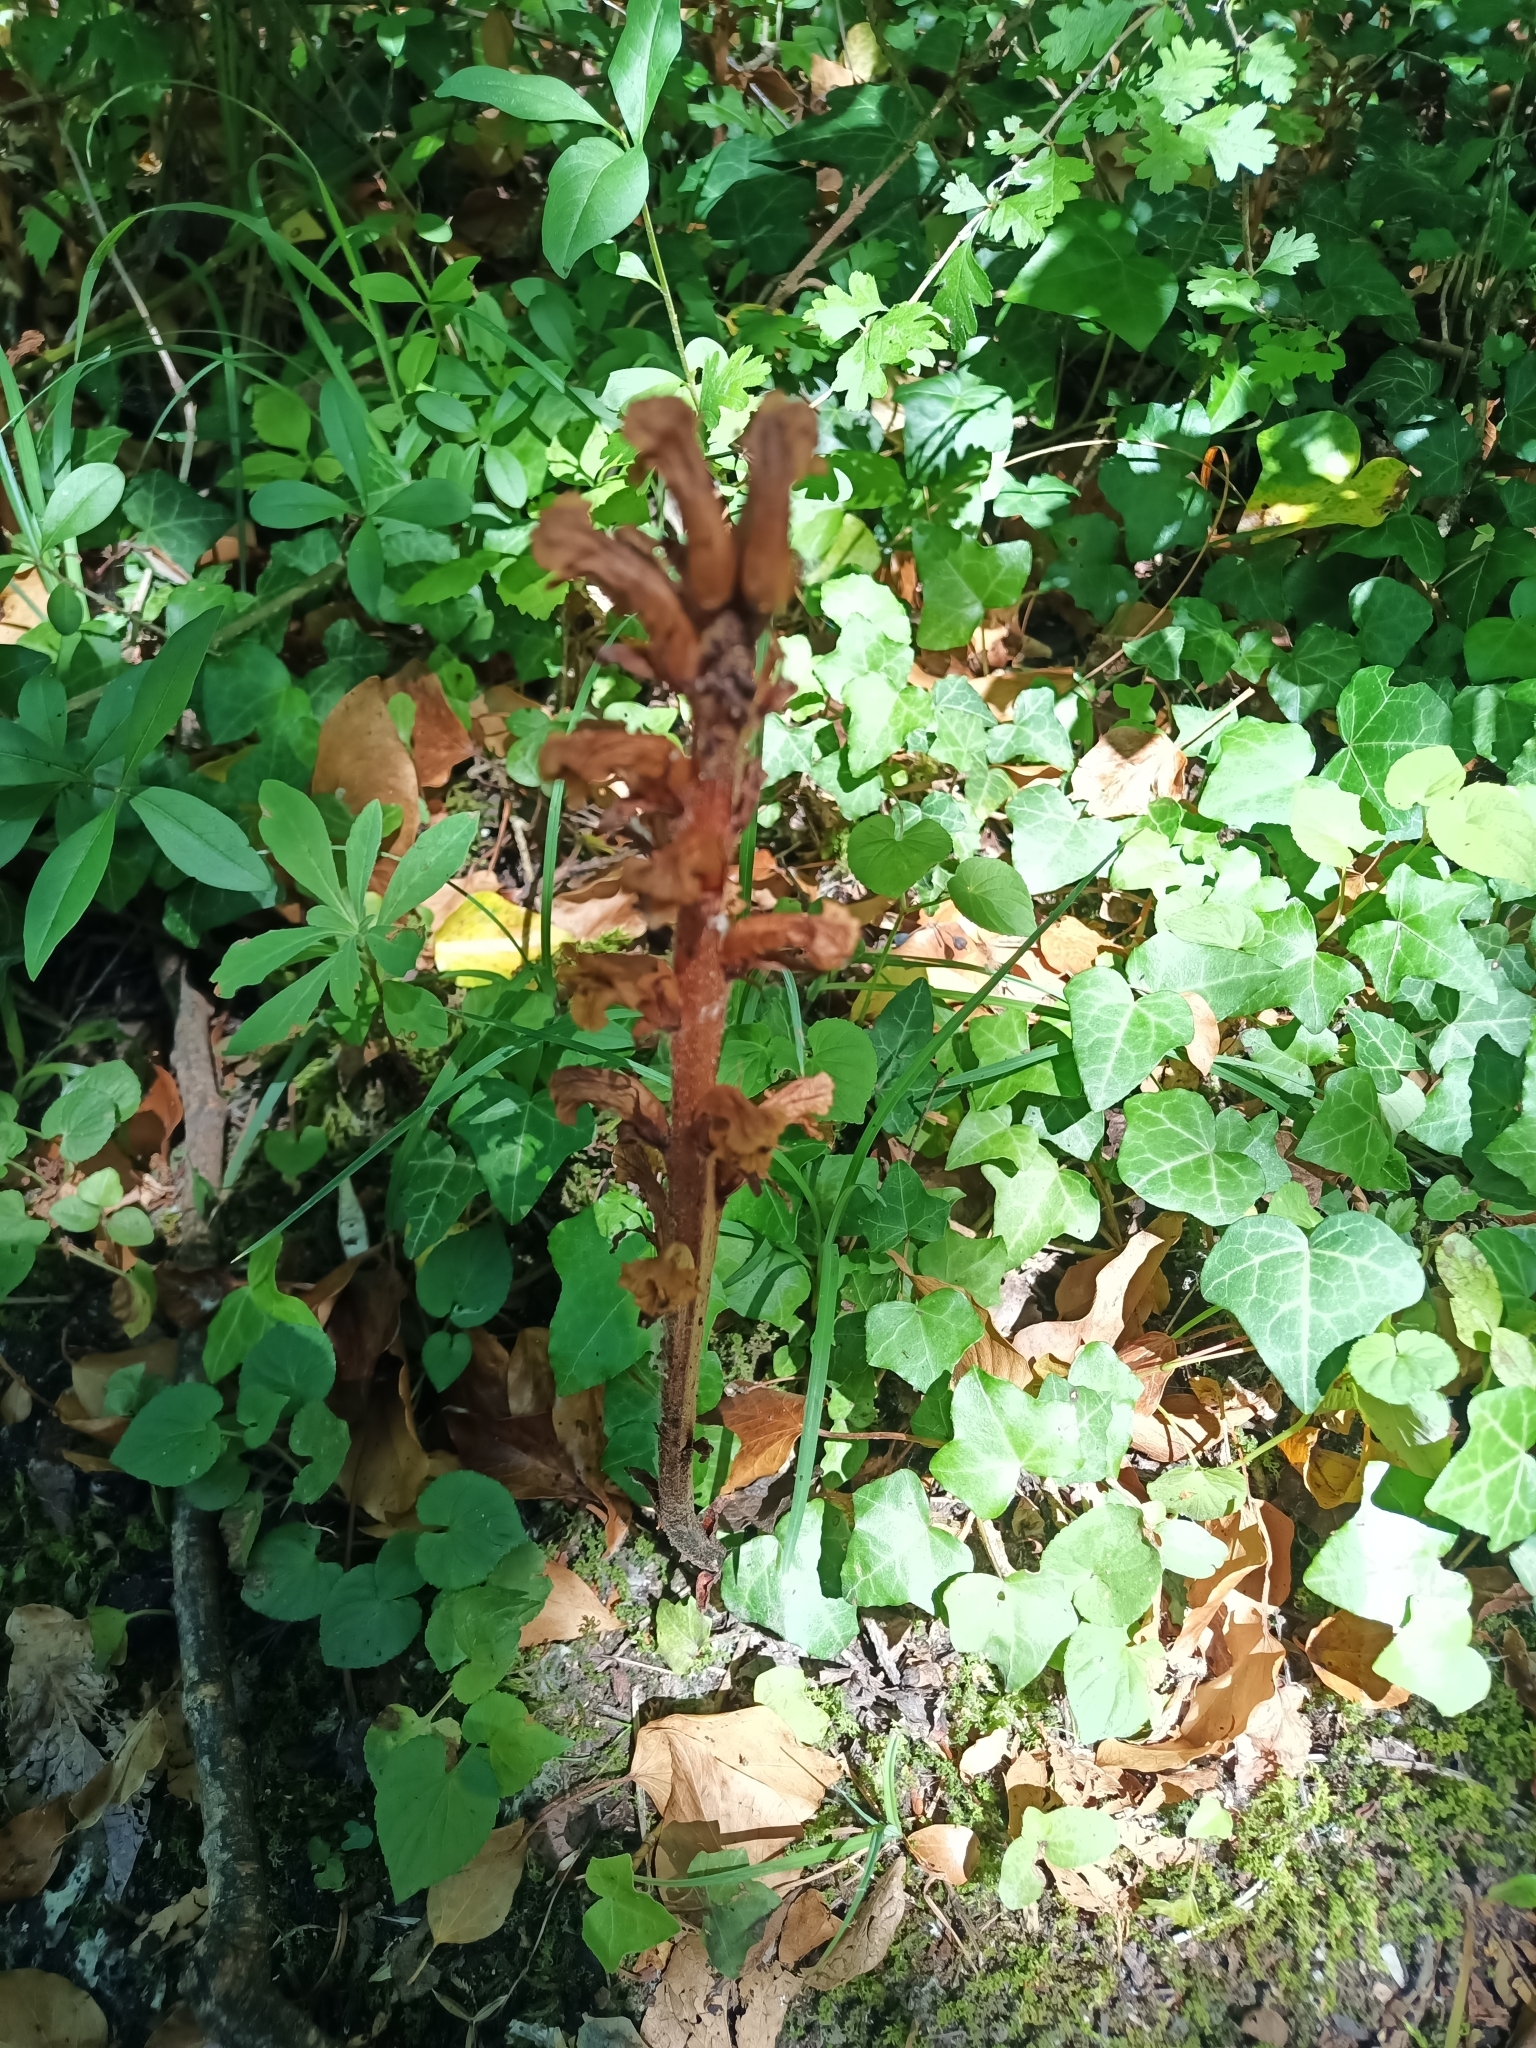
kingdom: Plantae
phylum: Tracheophyta
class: Magnoliopsida
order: Lamiales
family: Orobanchaceae
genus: Orobanche
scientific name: Orobanche hederae
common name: Ivy broomrape
